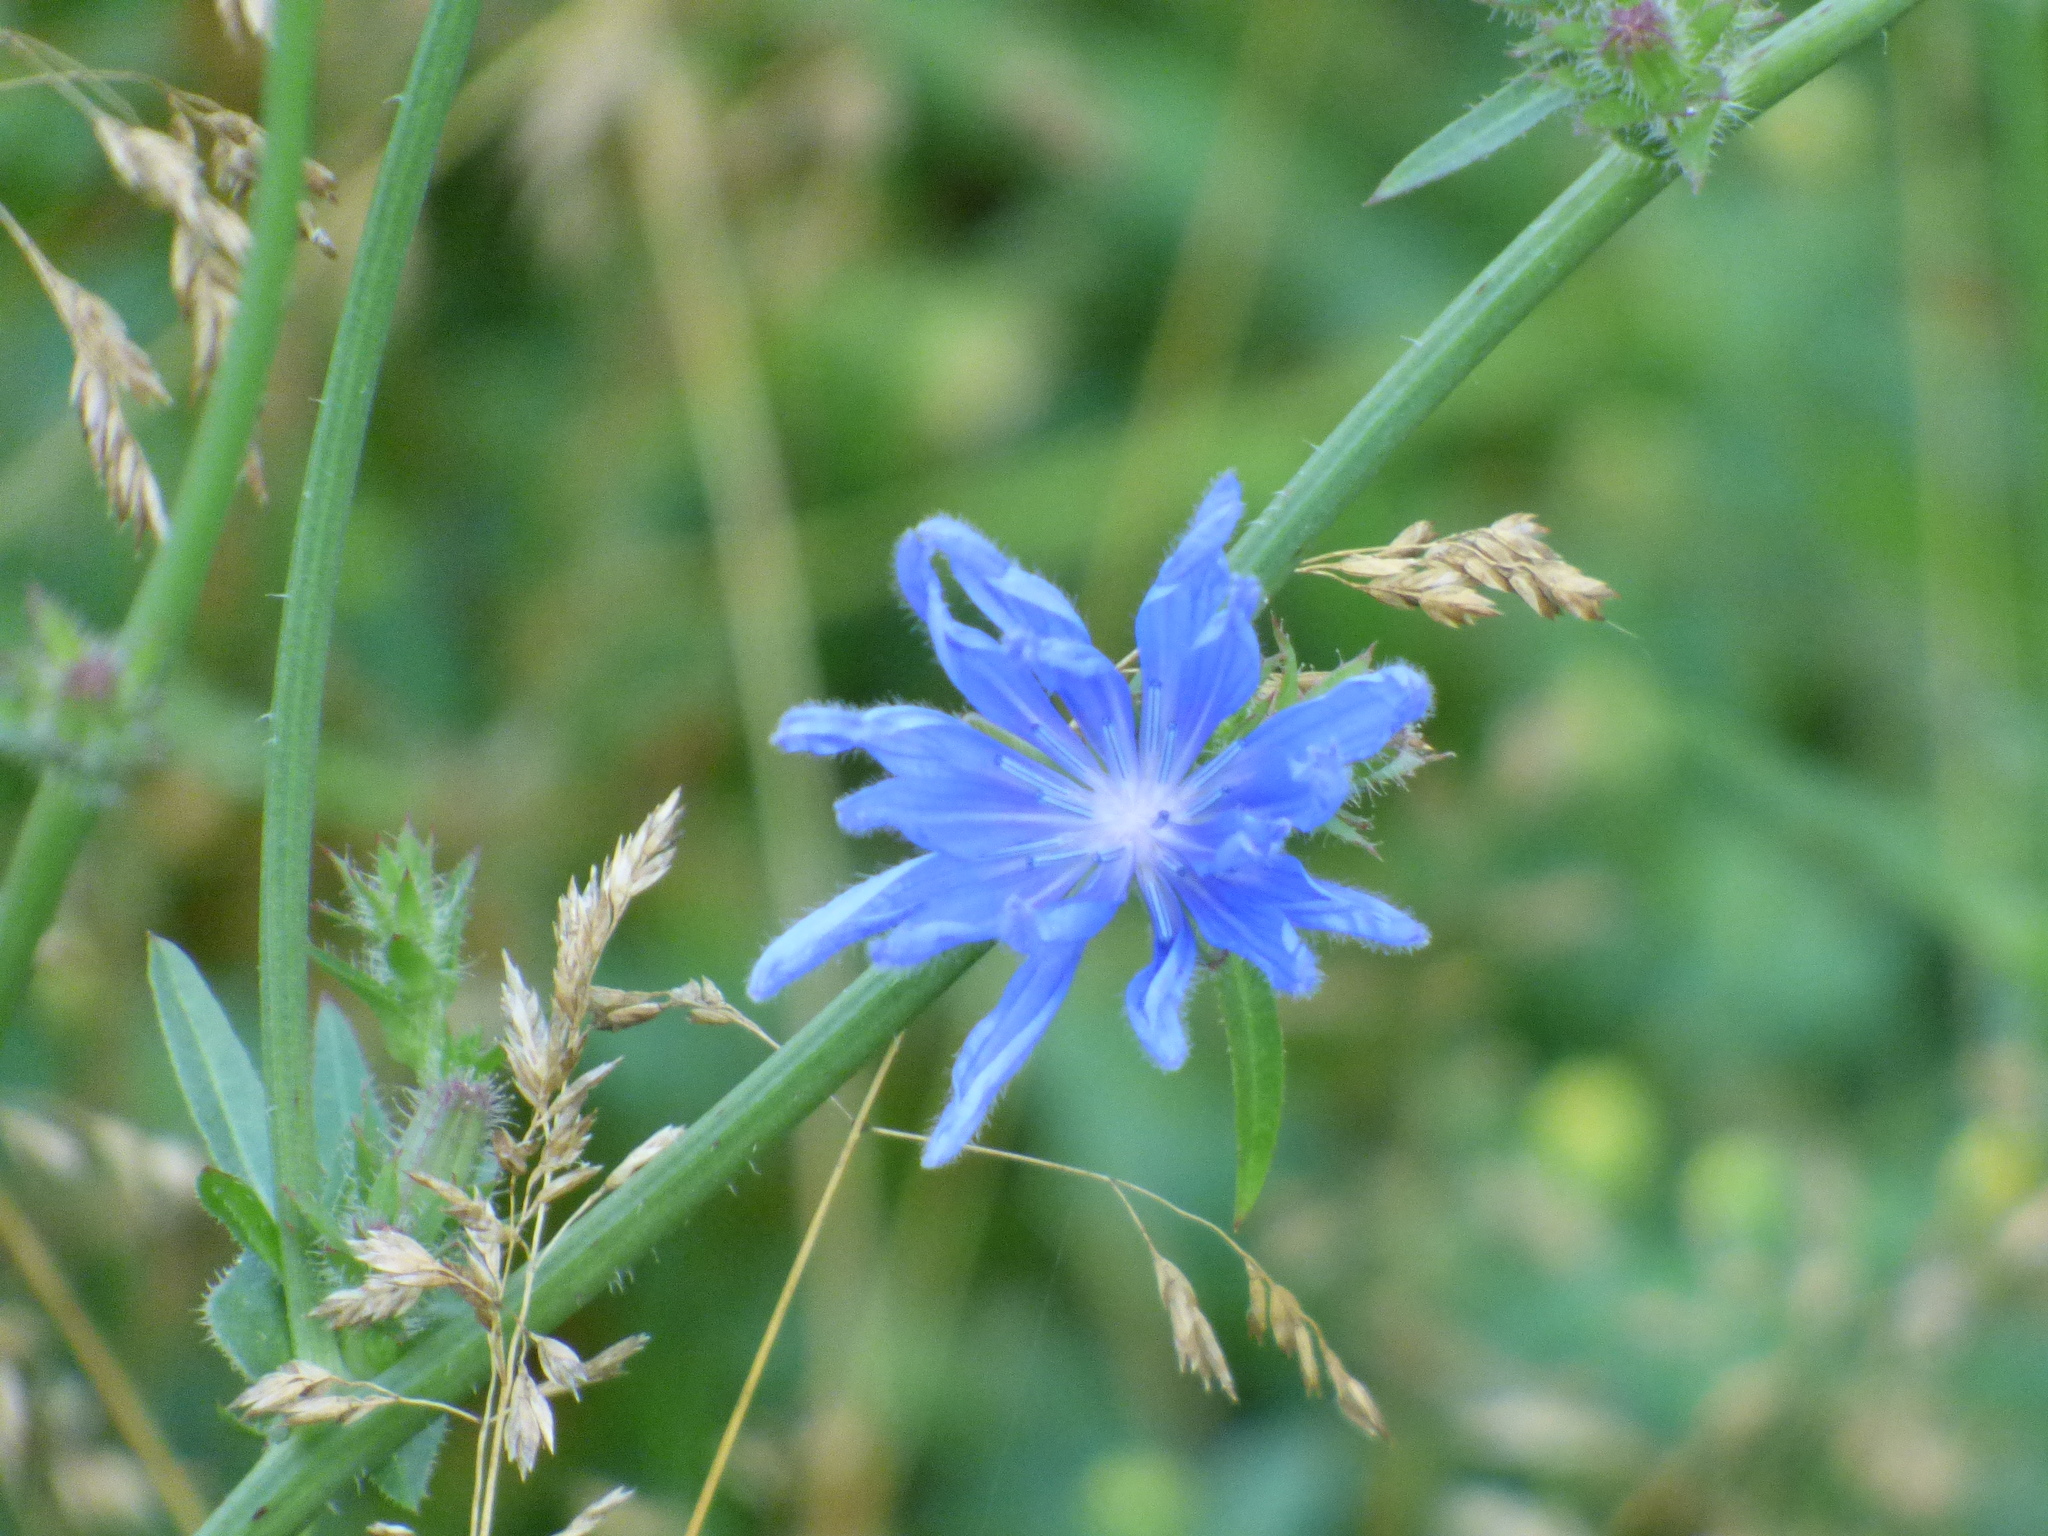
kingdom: Plantae
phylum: Tracheophyta
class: Magnoliopsida
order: Asterales
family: Asteraceae
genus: Cichorium
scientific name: Cichorium intybus
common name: Chicory
